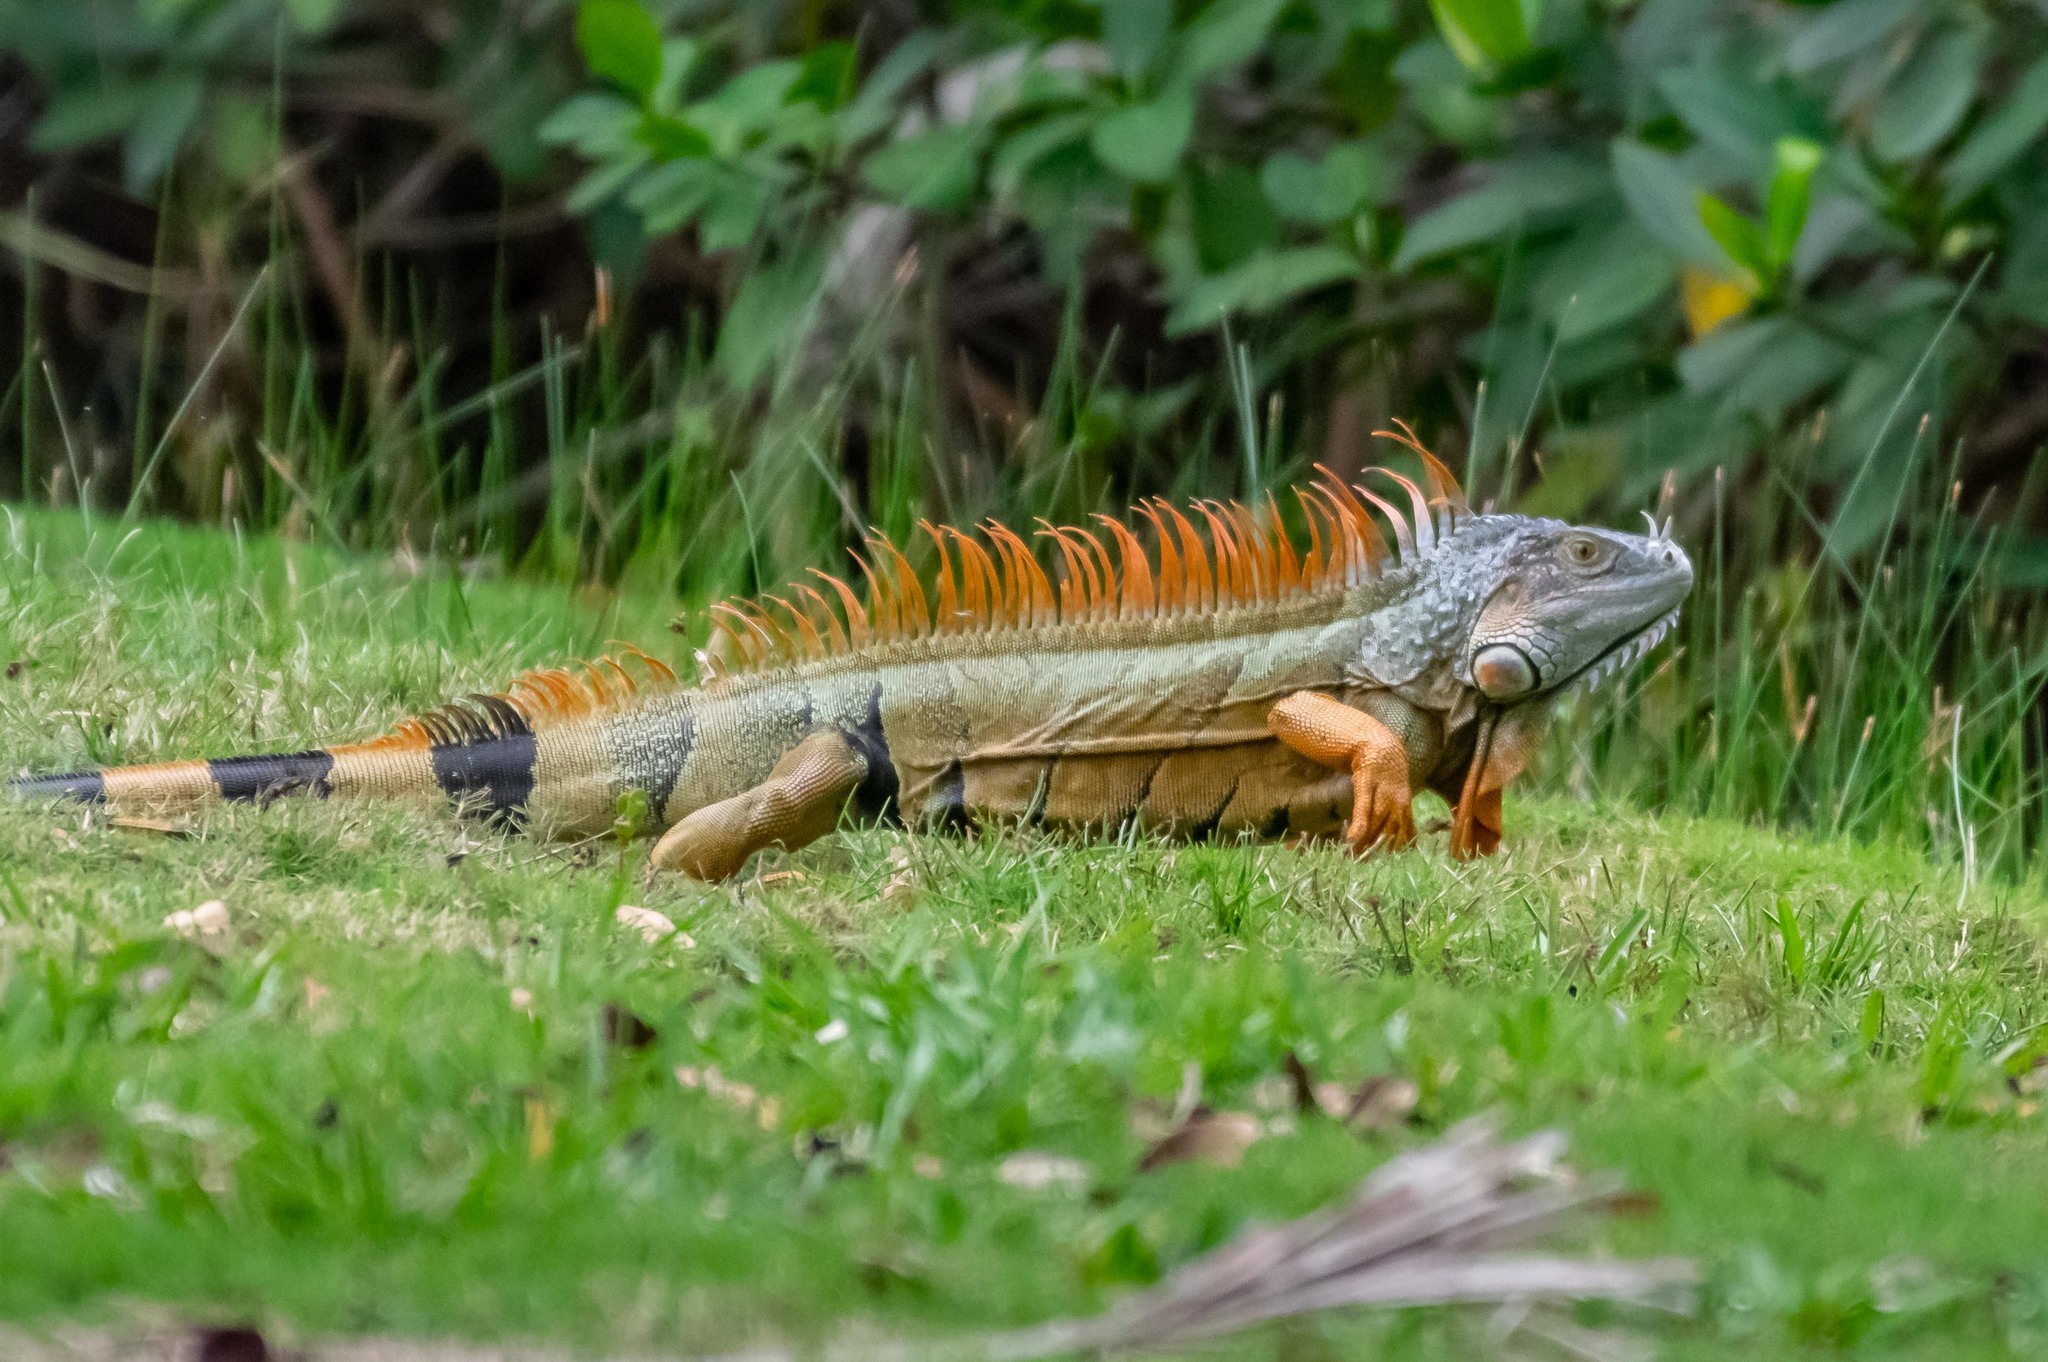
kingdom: Animalia
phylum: Chordata
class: Squamata
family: Iguanidae
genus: Iguana
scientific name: Iguana iguana
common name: Green iguana
